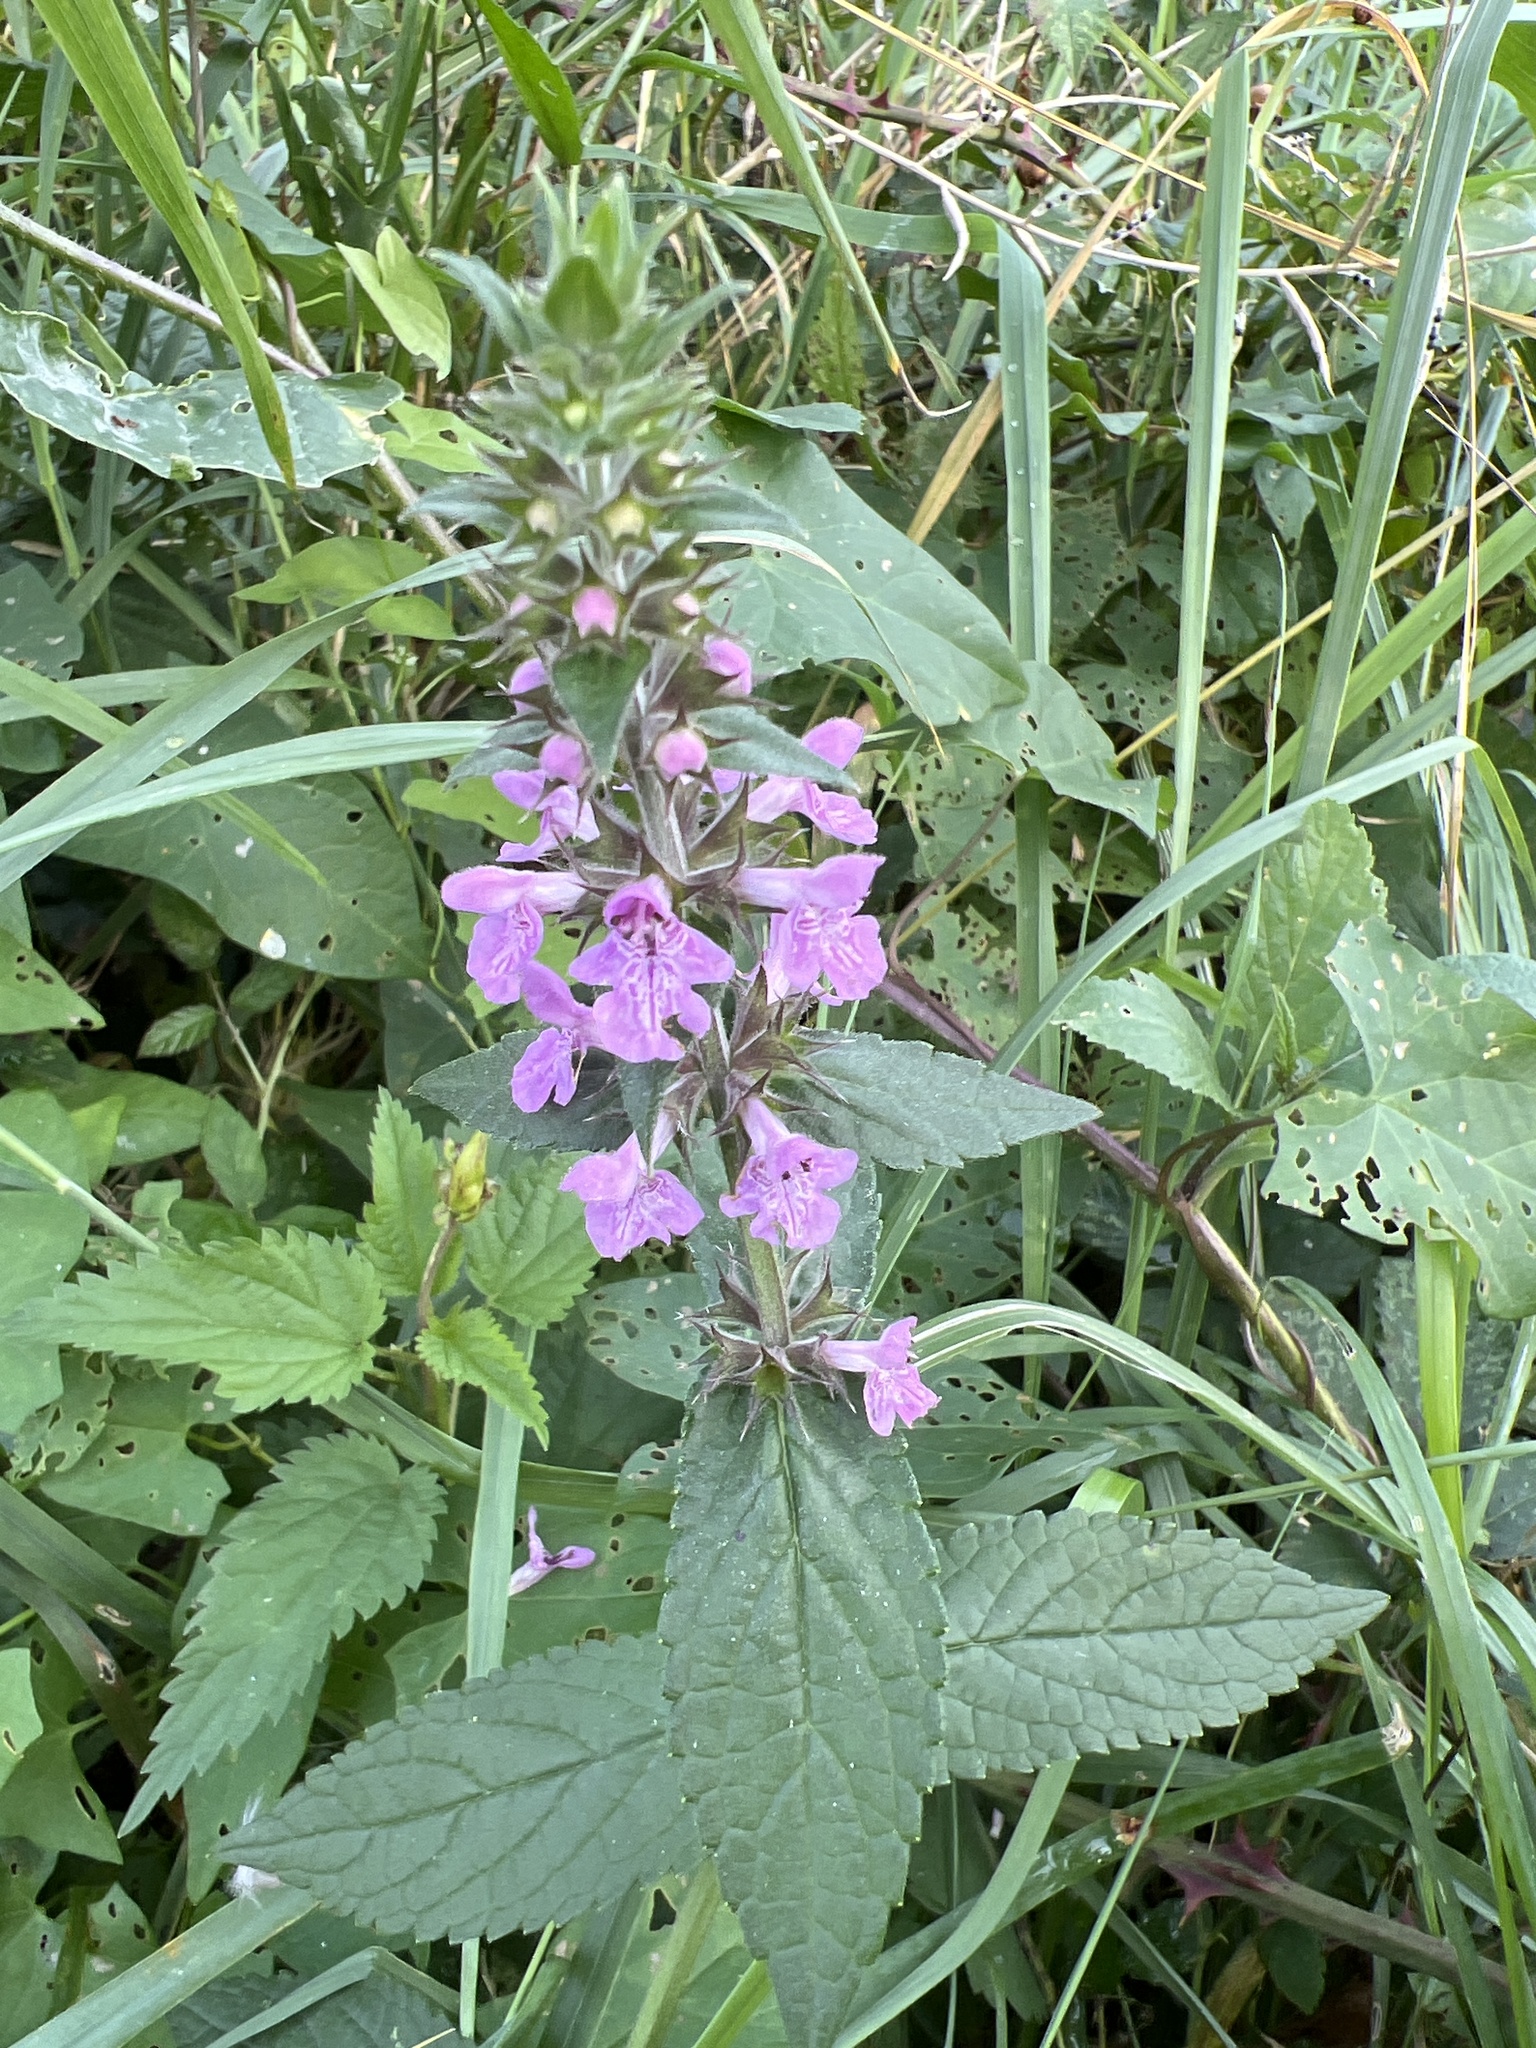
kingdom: Plantae
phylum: Tracheophyta
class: Magnoliopsida
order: Lamiales
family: Lamiaceae
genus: Stachys
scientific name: Stachys palustris
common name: Marsh woundwort
